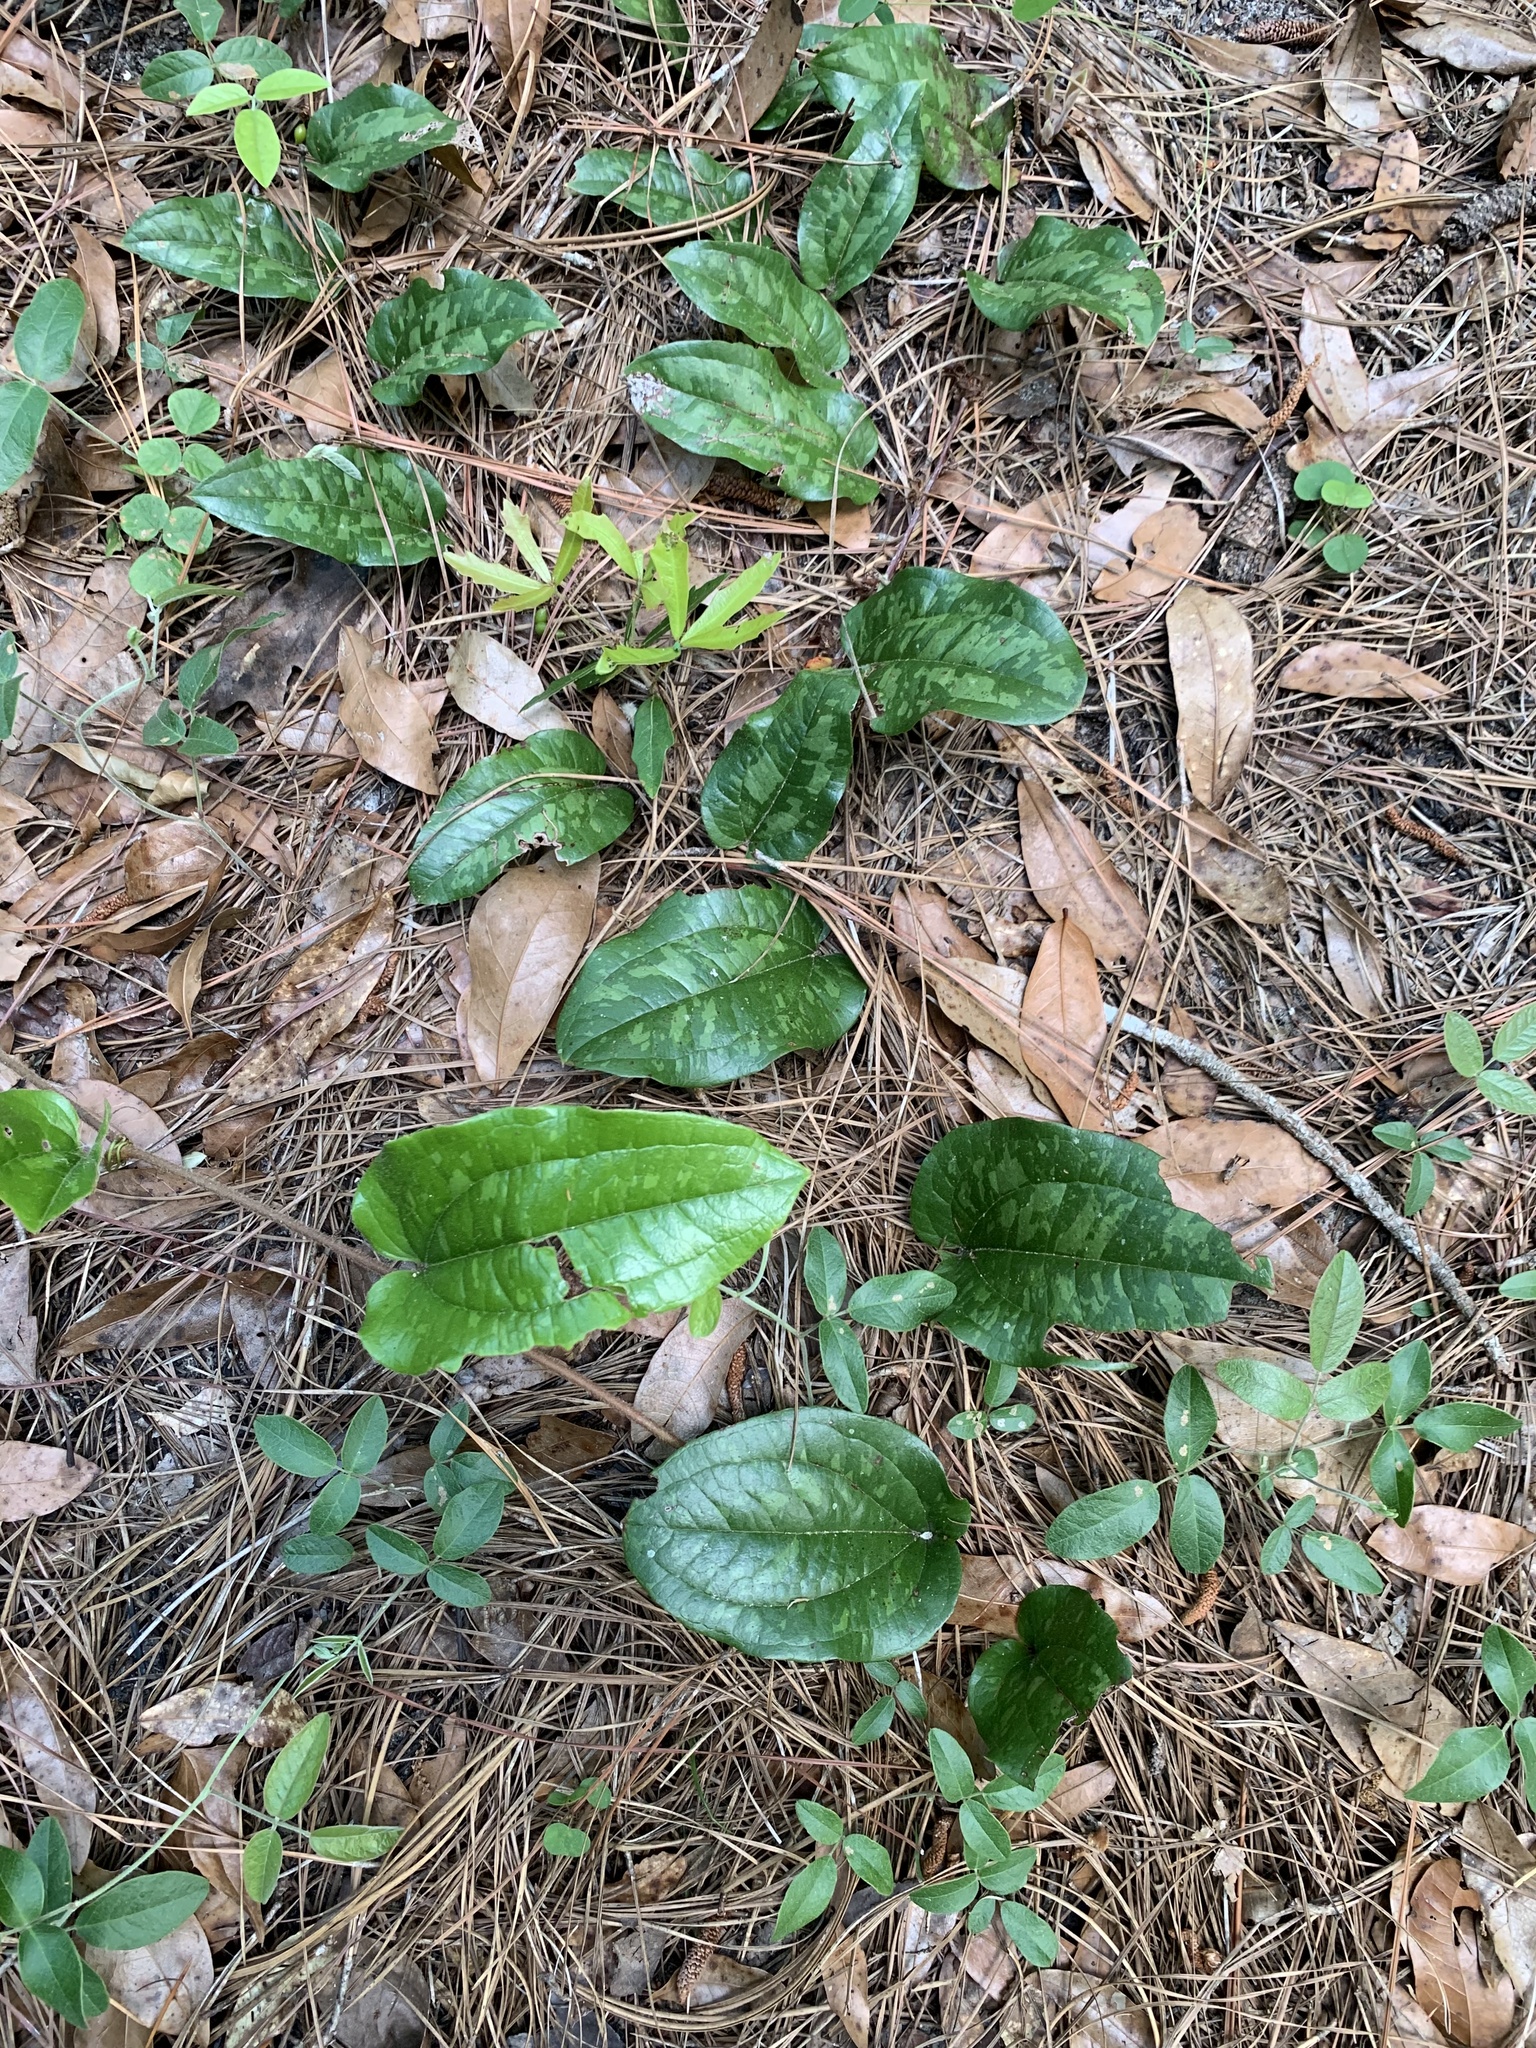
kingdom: Plantae
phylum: Tracheophyta
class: Liliopsida
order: Liliales
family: Smilacaceae
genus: Smilax
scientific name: Smilax pumila
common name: Sarsaparilla-vine
